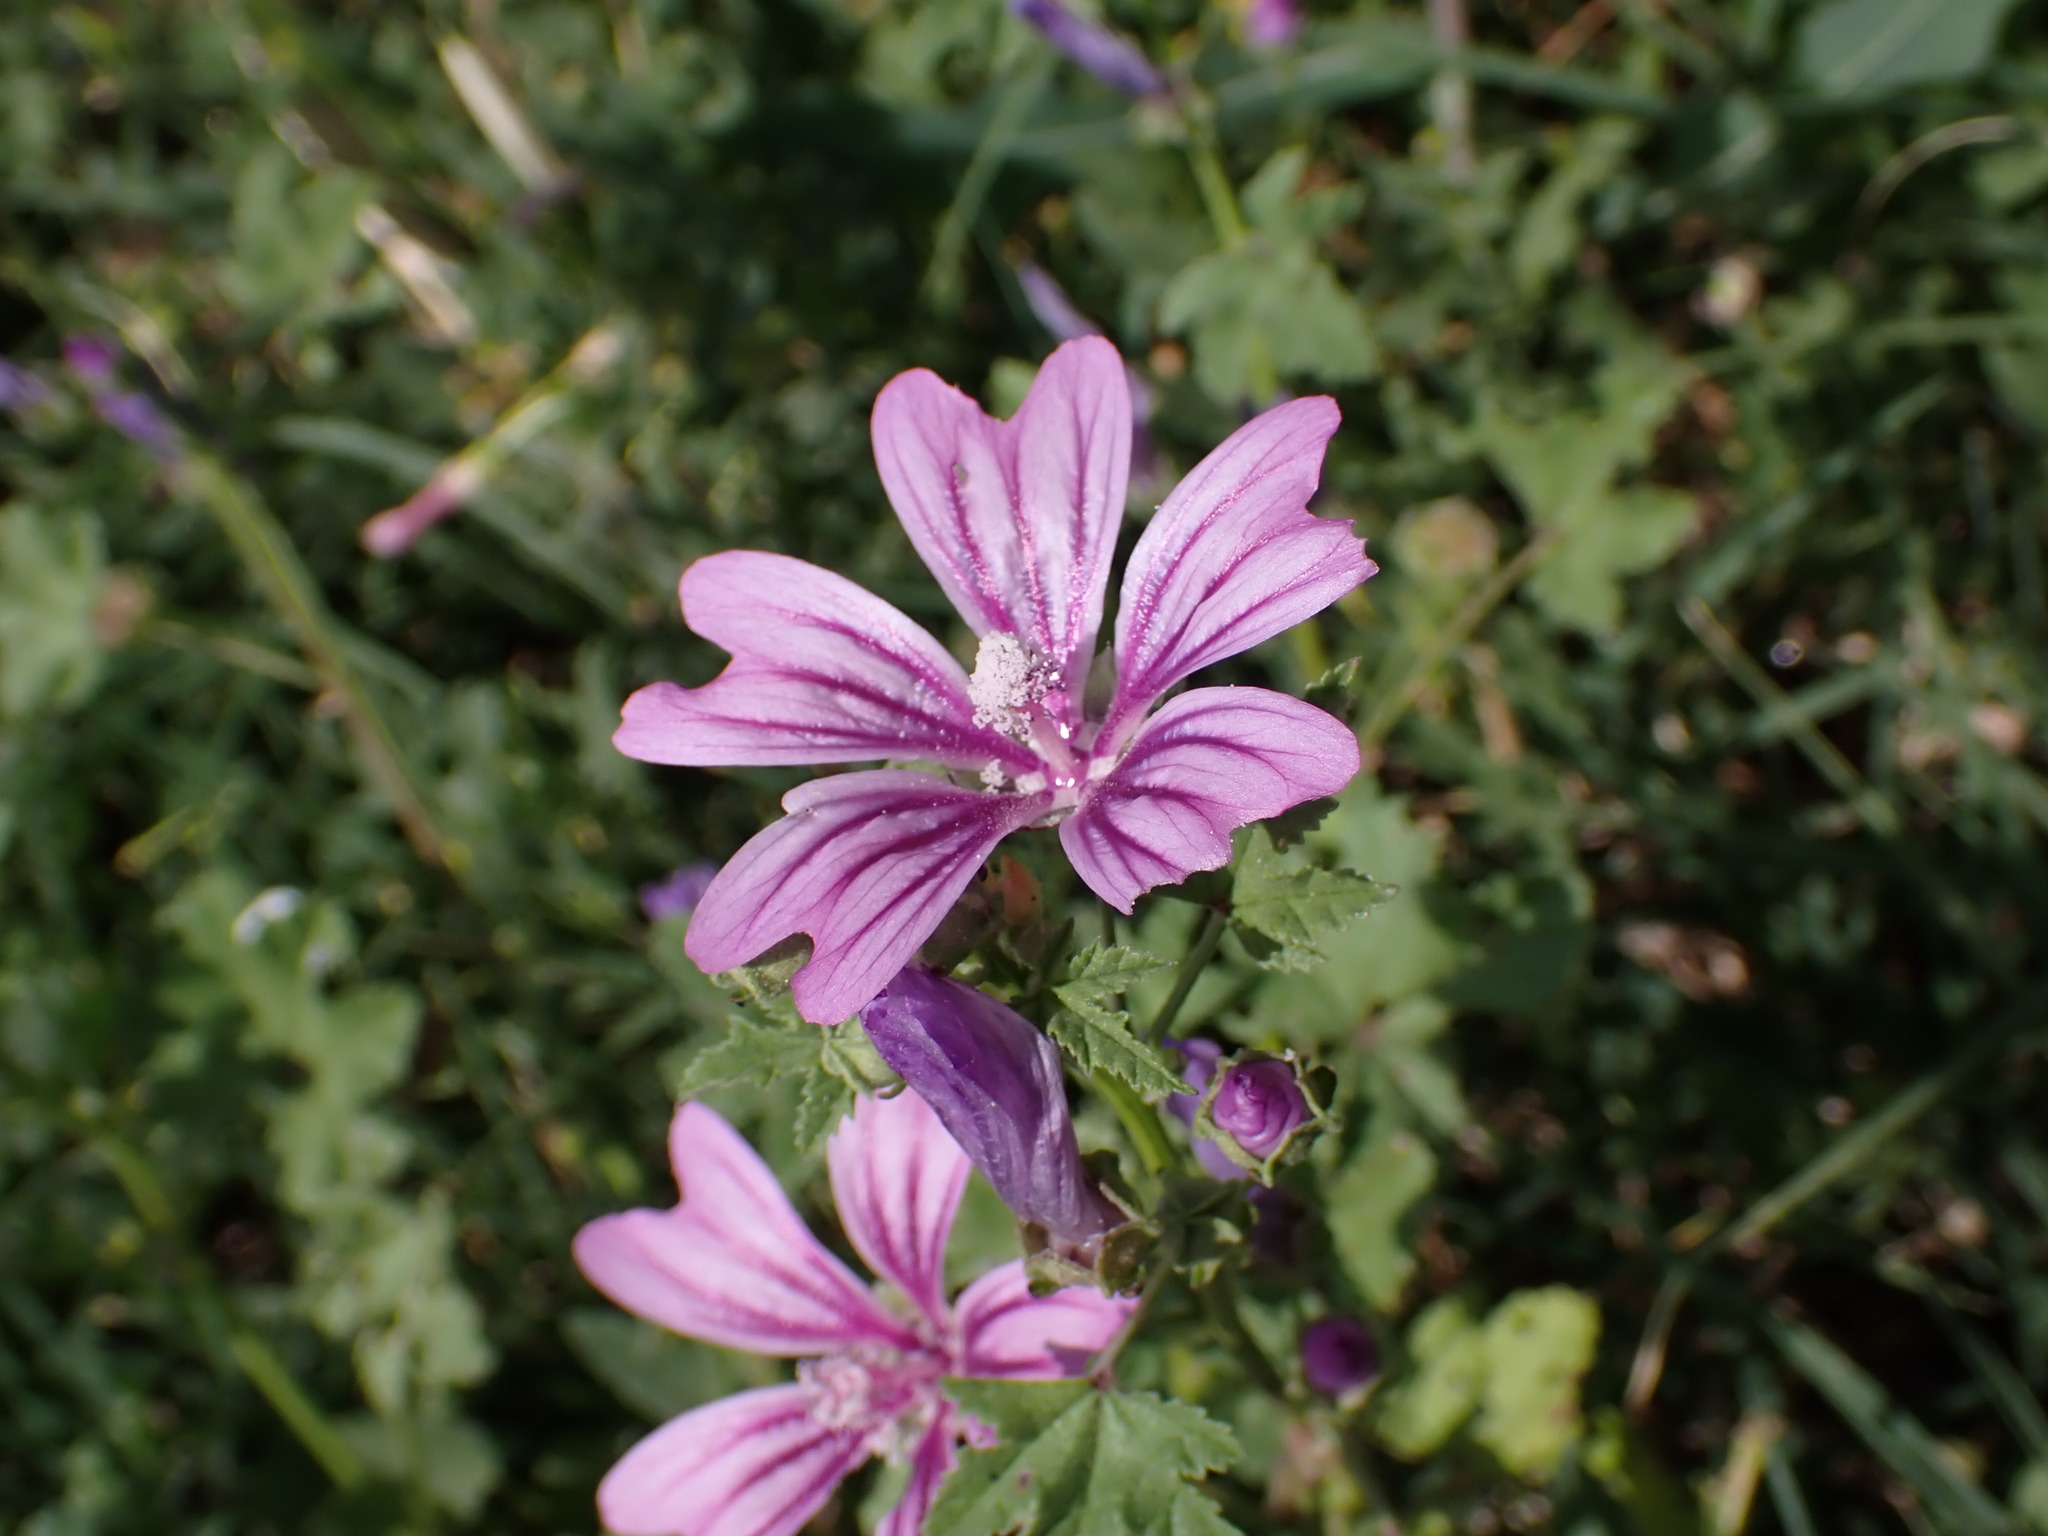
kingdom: Plantae
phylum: Tracheophyta
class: Magnoliopsida
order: Malvales
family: Malvaceae
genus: Malva
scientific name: Malva sylvestris
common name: Common mallow
